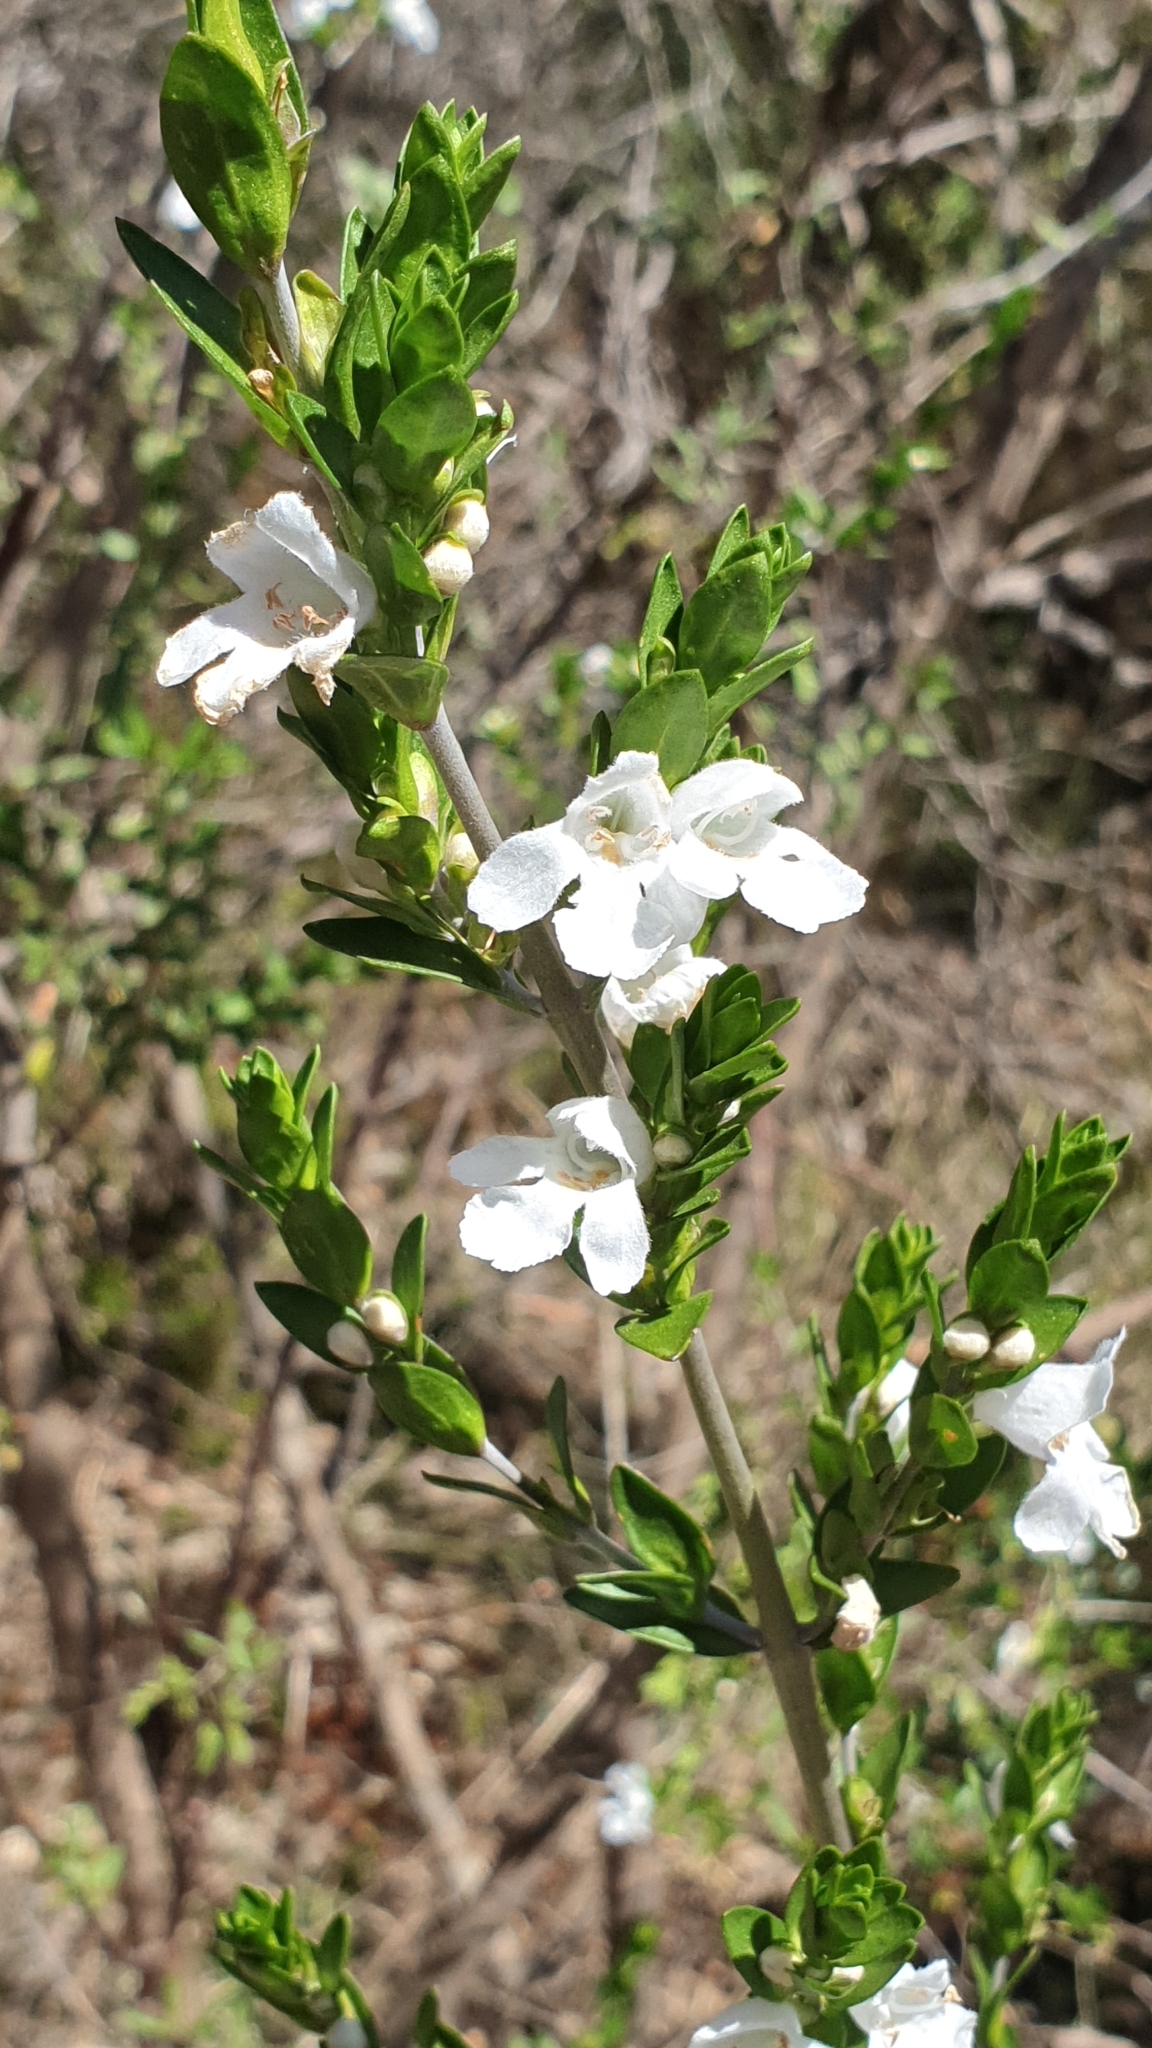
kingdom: Plantae
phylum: Tracheophyta
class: Magnoliopsida
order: Lamiales
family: Lamiaceae
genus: Prostanthera
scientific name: Prostanthera behriana
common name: Downy mintbush
